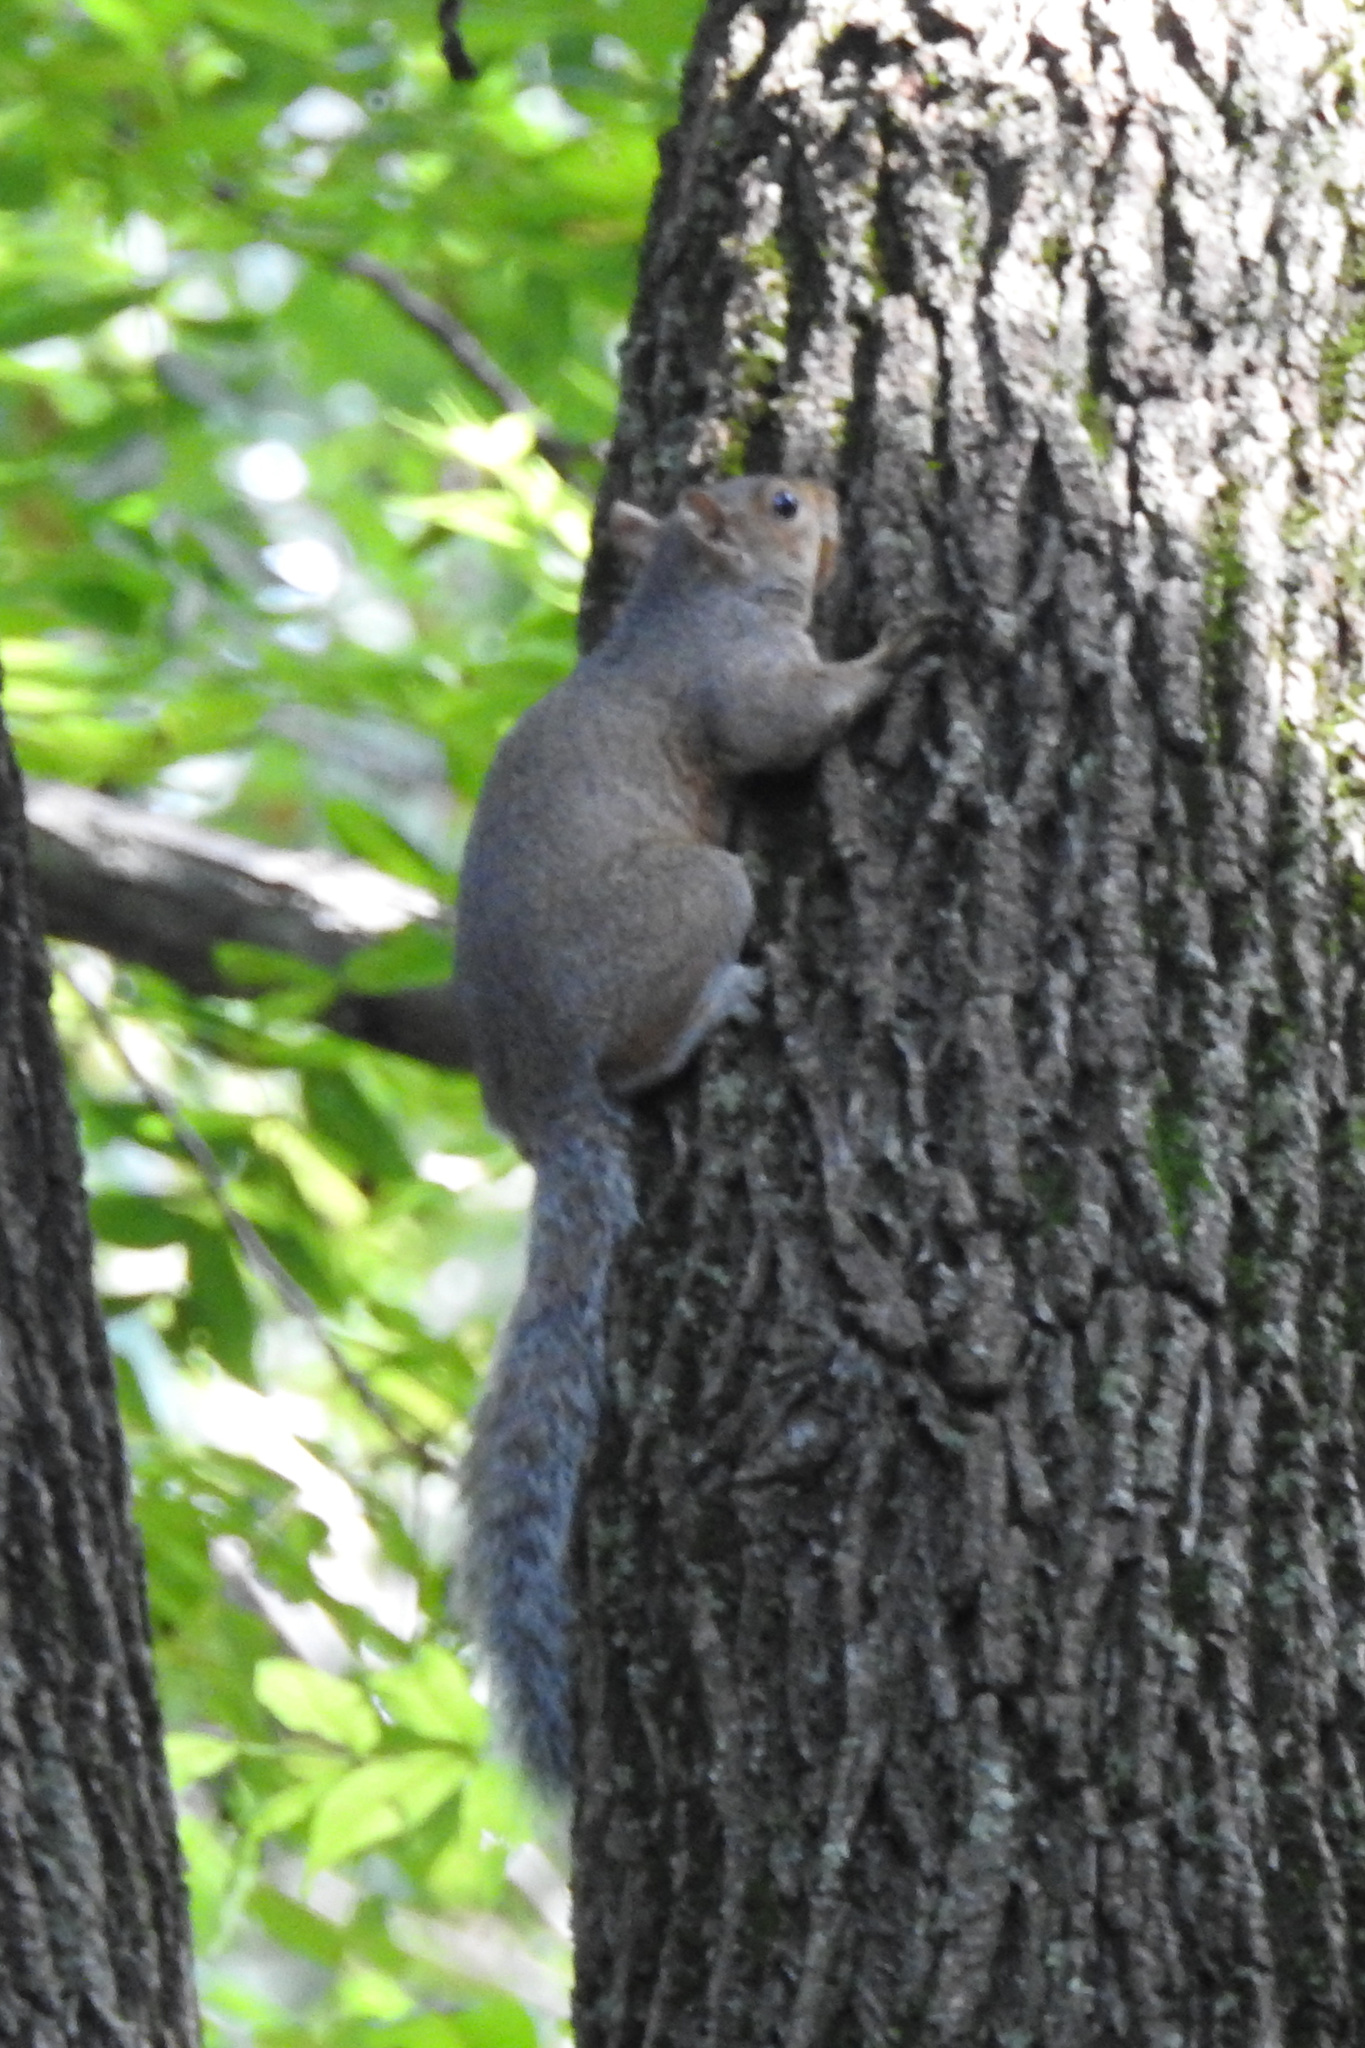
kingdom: Animalia
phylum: Chordata
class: Mammalia
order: Rodentia
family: Sciuridae
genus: Sciurus
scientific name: Sciurus carolinensis
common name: Eastern gray squirrel
